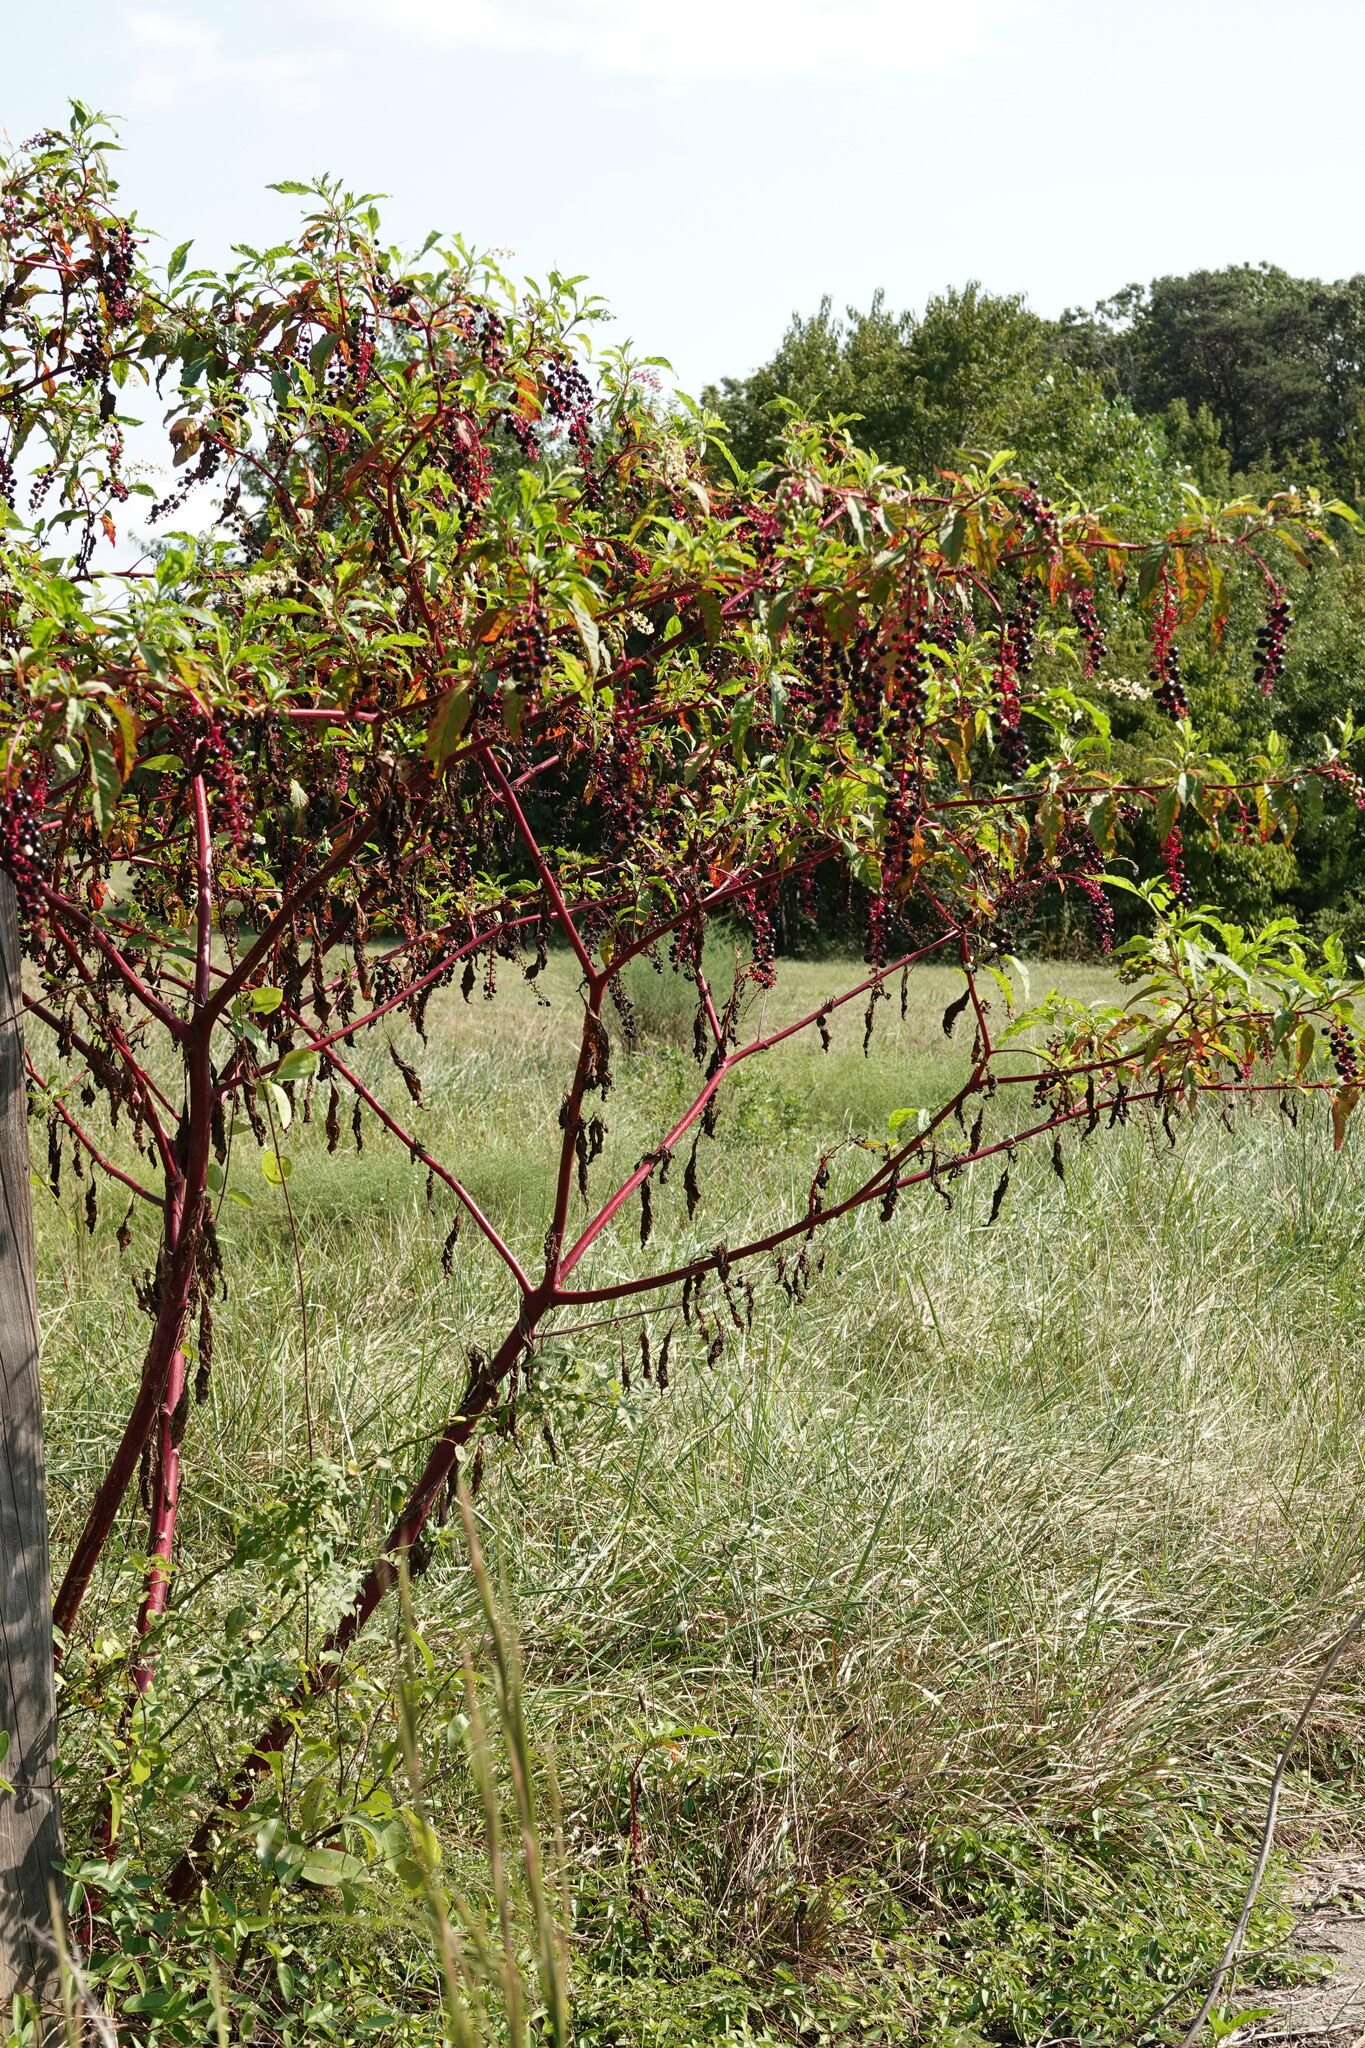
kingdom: Plantae
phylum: Tracheophyta
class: Magnoliopsida
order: Caryophyllales
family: Phytolaccaceae
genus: Phytolacca
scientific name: Phytolacca americana
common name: American pokeweed
